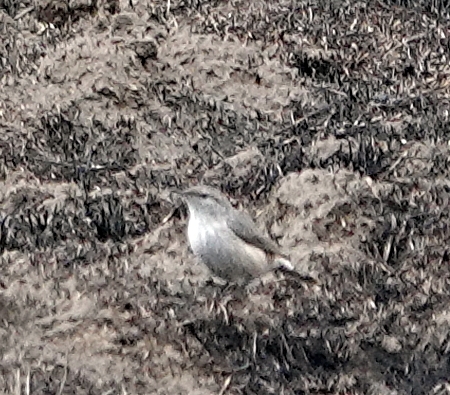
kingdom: Animalia
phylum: Chordata
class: Aves
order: Passeriformes
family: Troglodytidae
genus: Salpinctes
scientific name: Salpinctes obsoletus
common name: Rock wren
